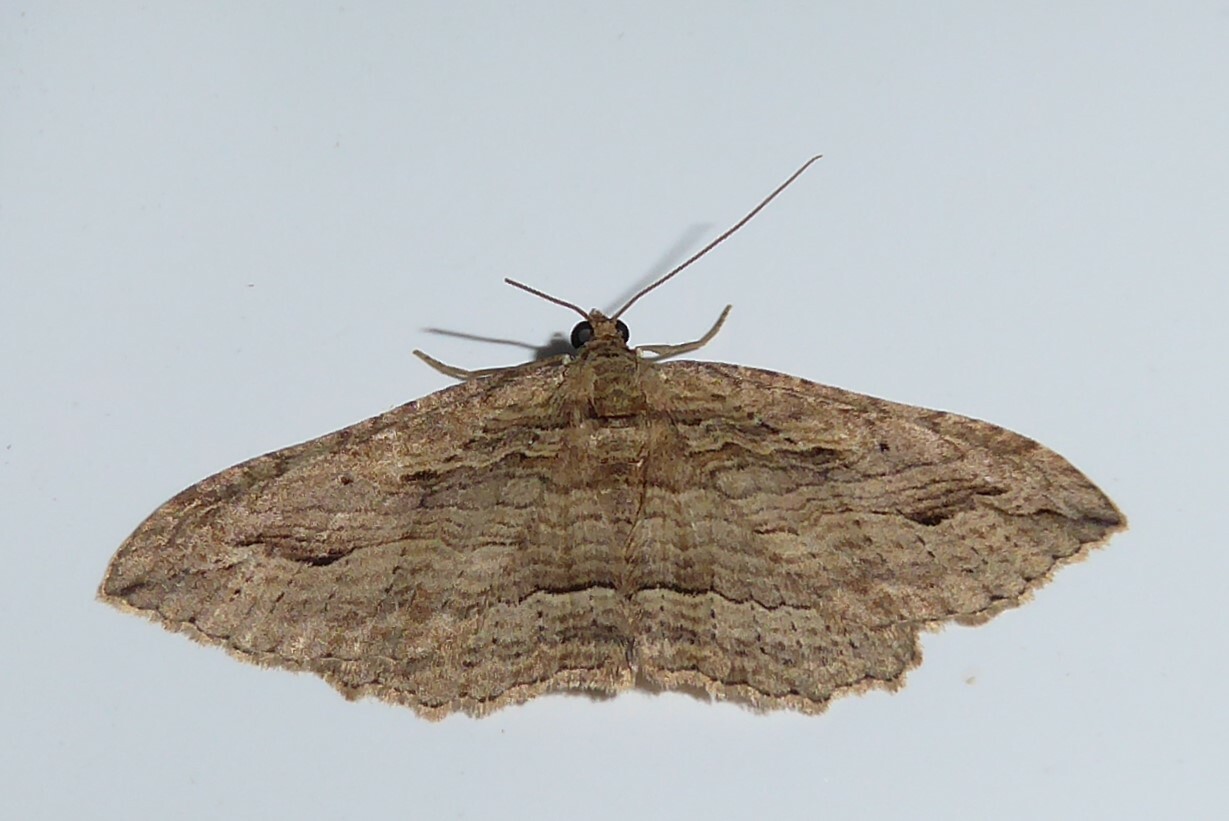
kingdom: Animalia
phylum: Arthropoda
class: Insecta
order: Lepidoptera
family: Geometridae
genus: Austrocidaria
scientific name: Austrocidaria gobiata
